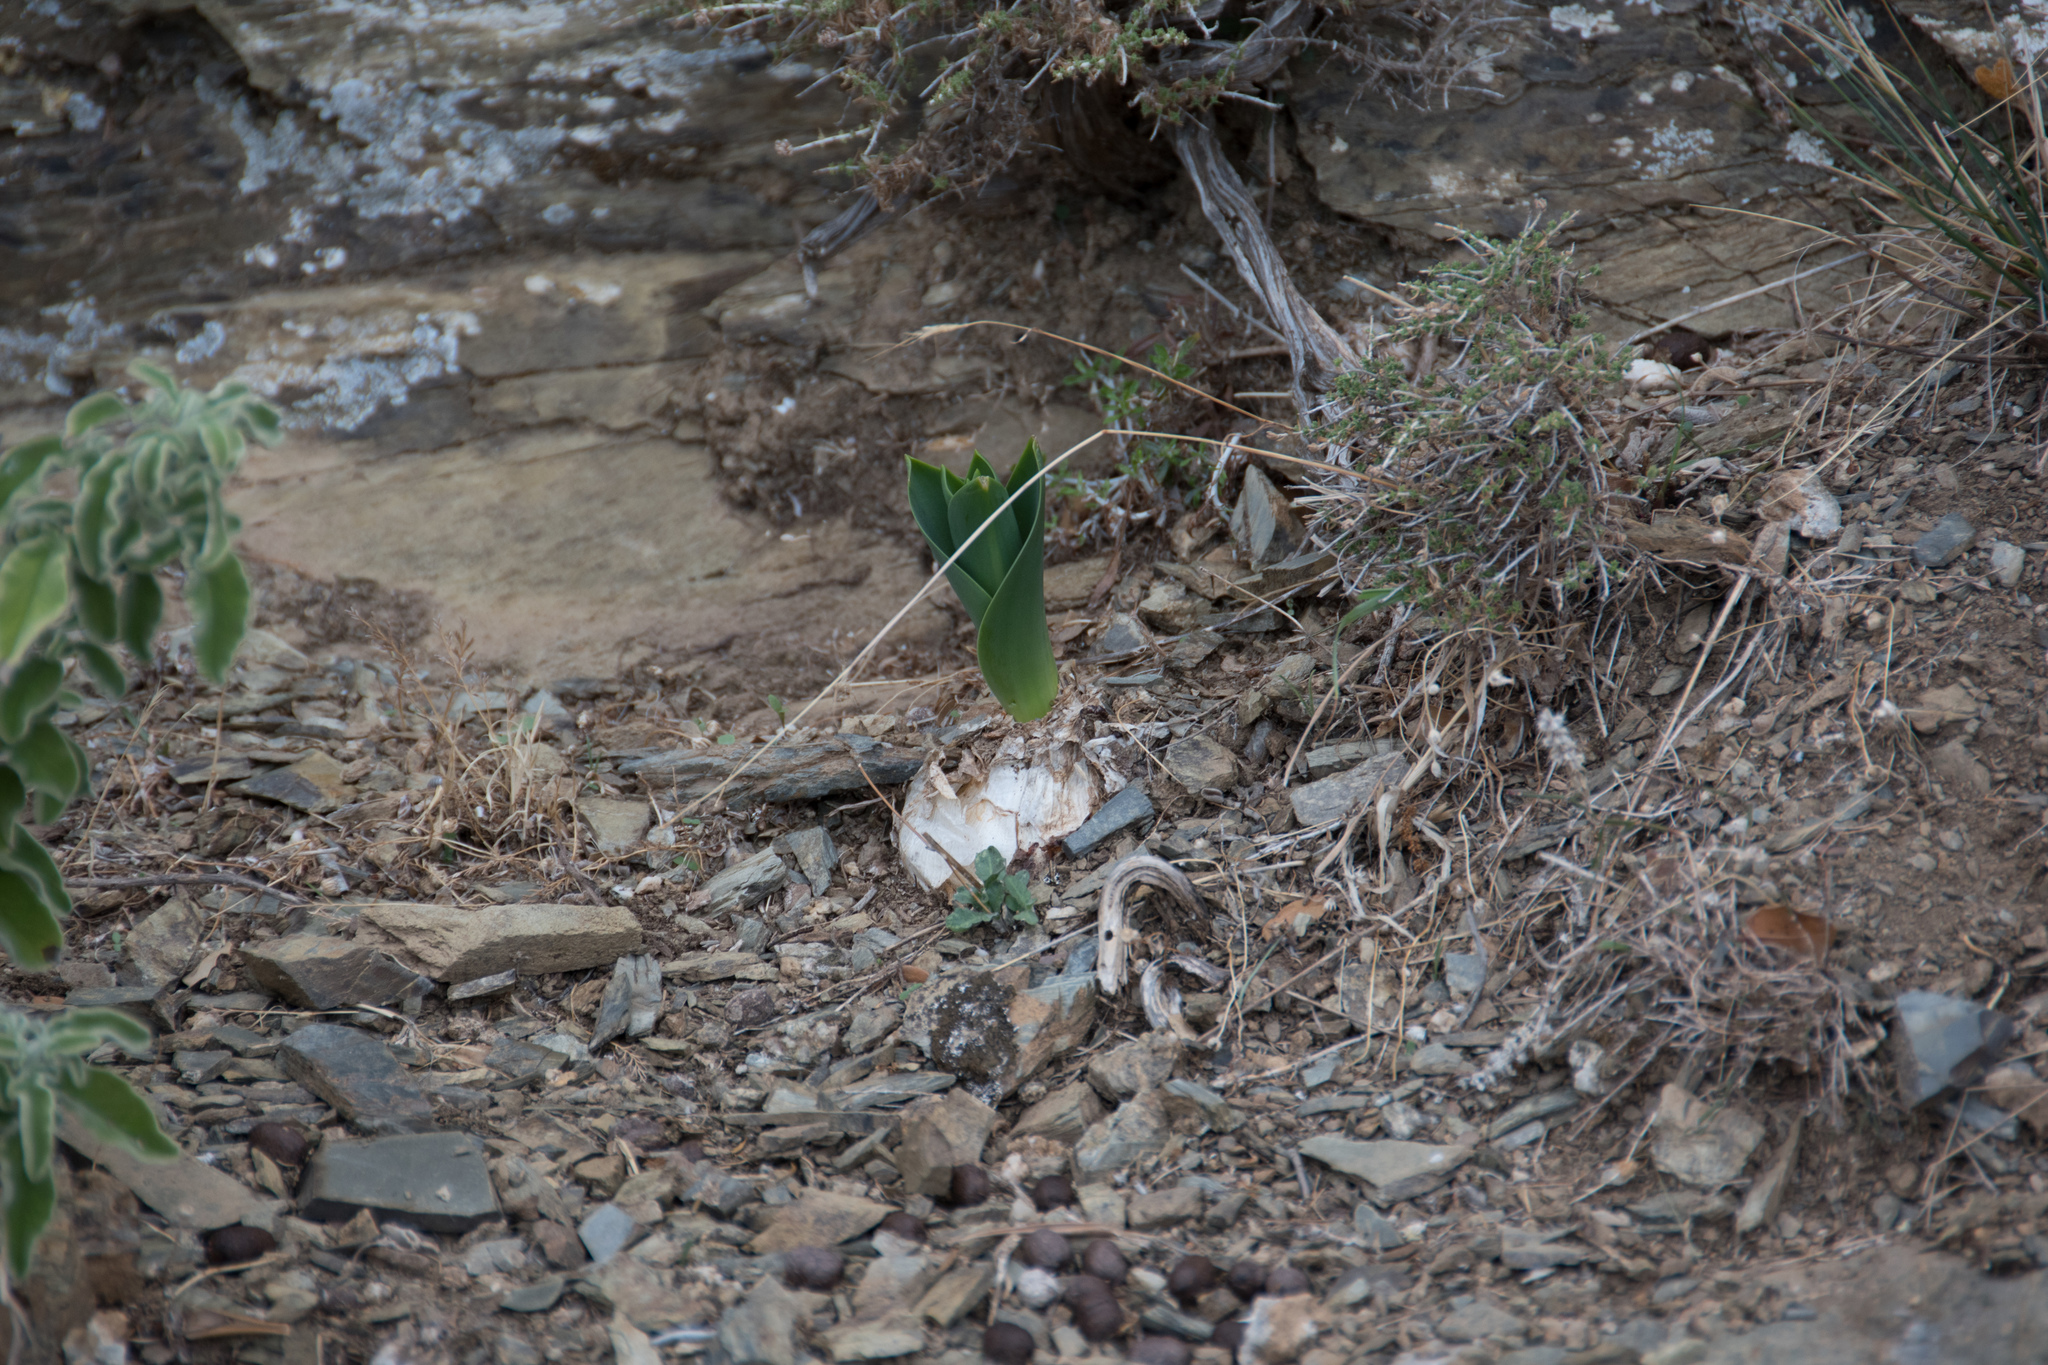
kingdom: Plantae
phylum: Tracheophyta
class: Liliopsida
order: Asparagales
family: Asparagaceae
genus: Drimia
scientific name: Drimia numidica
